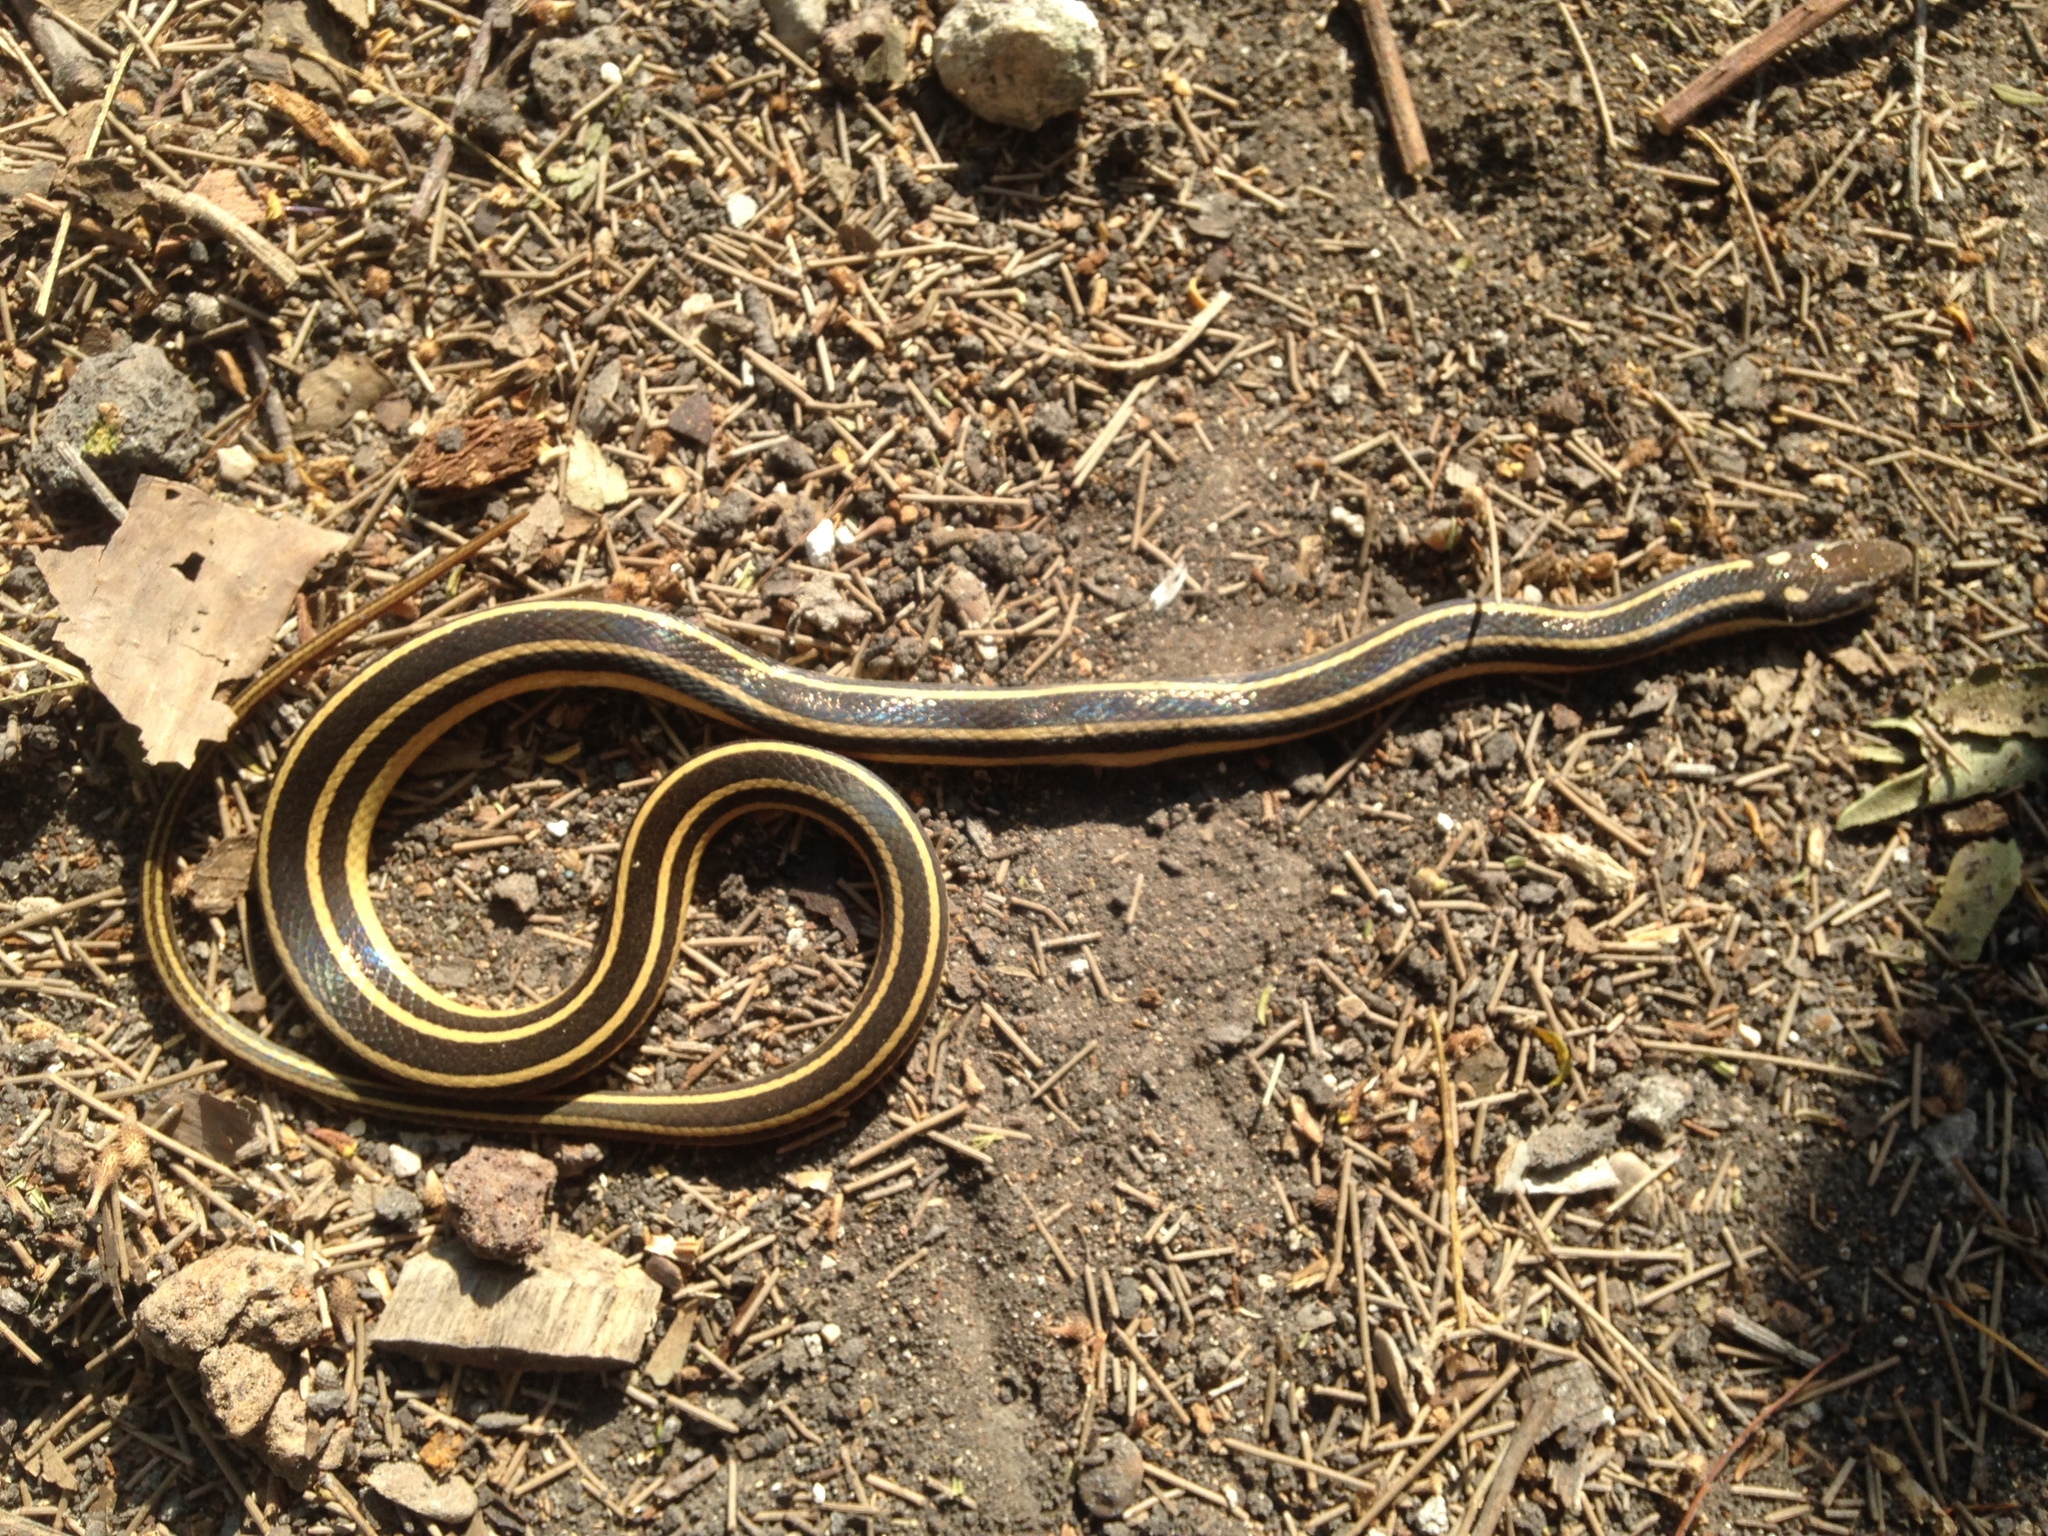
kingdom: Animalia
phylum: Chordata
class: Squamata
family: Colubridae
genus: Coniophanes
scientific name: Coniophanes piceivittis
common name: Cope's black-striped snake
